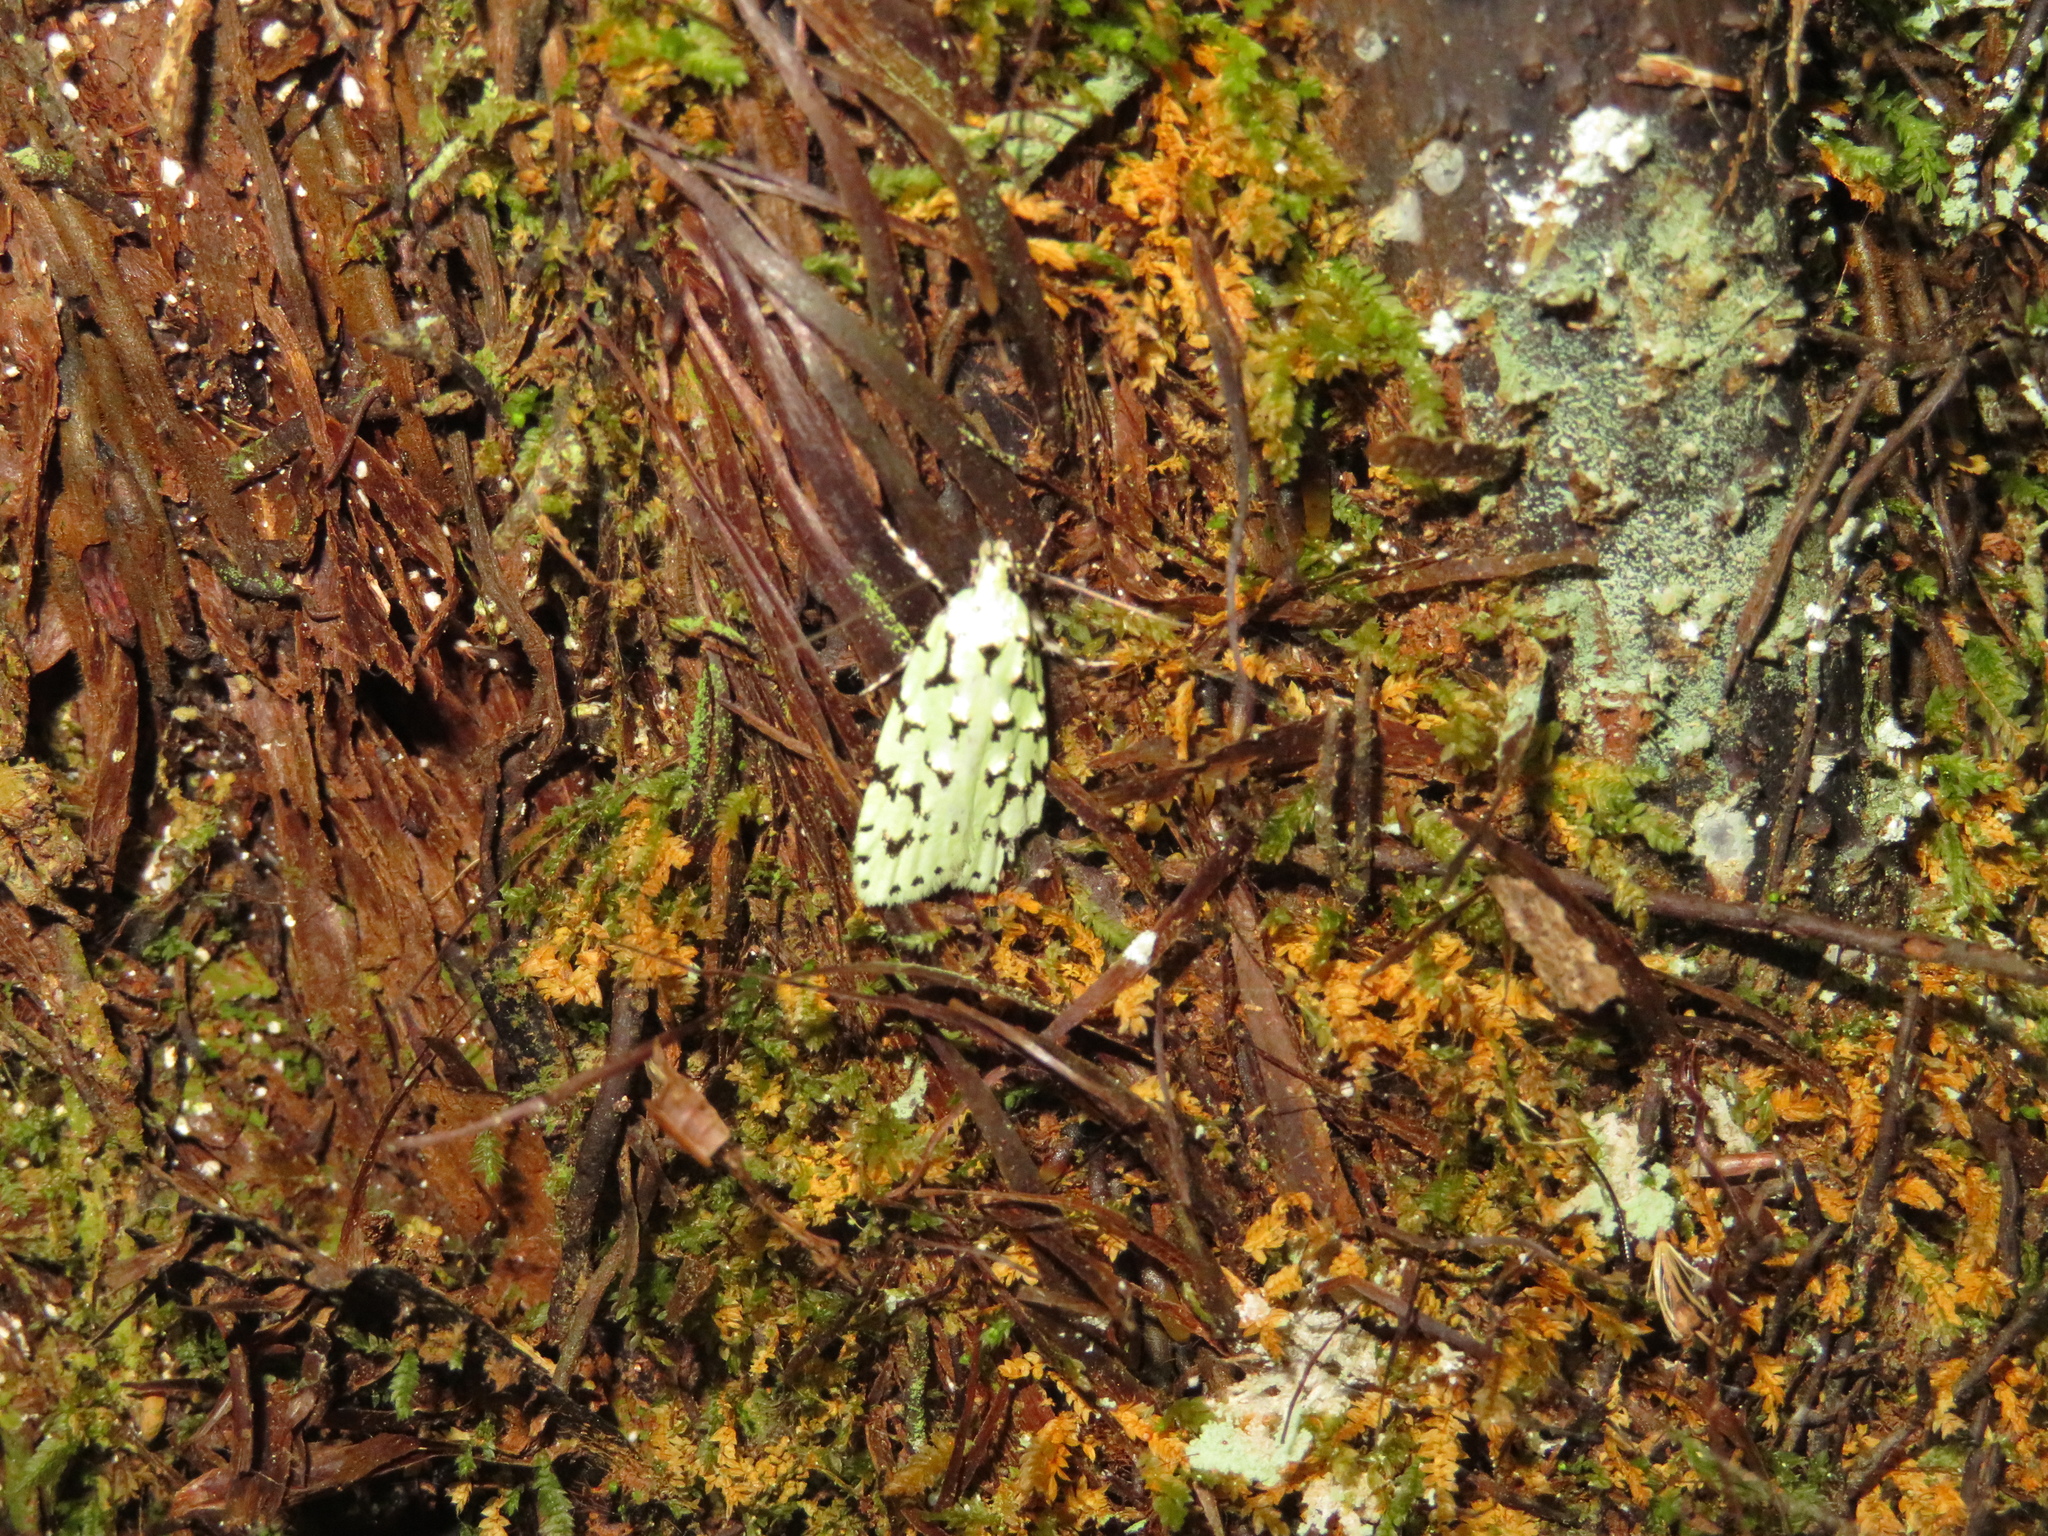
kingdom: Animalia
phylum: Arthropoda
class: Insecta
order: Lepidoptera
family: Oecophoridae
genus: Izatha
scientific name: Izatha peroneanella
